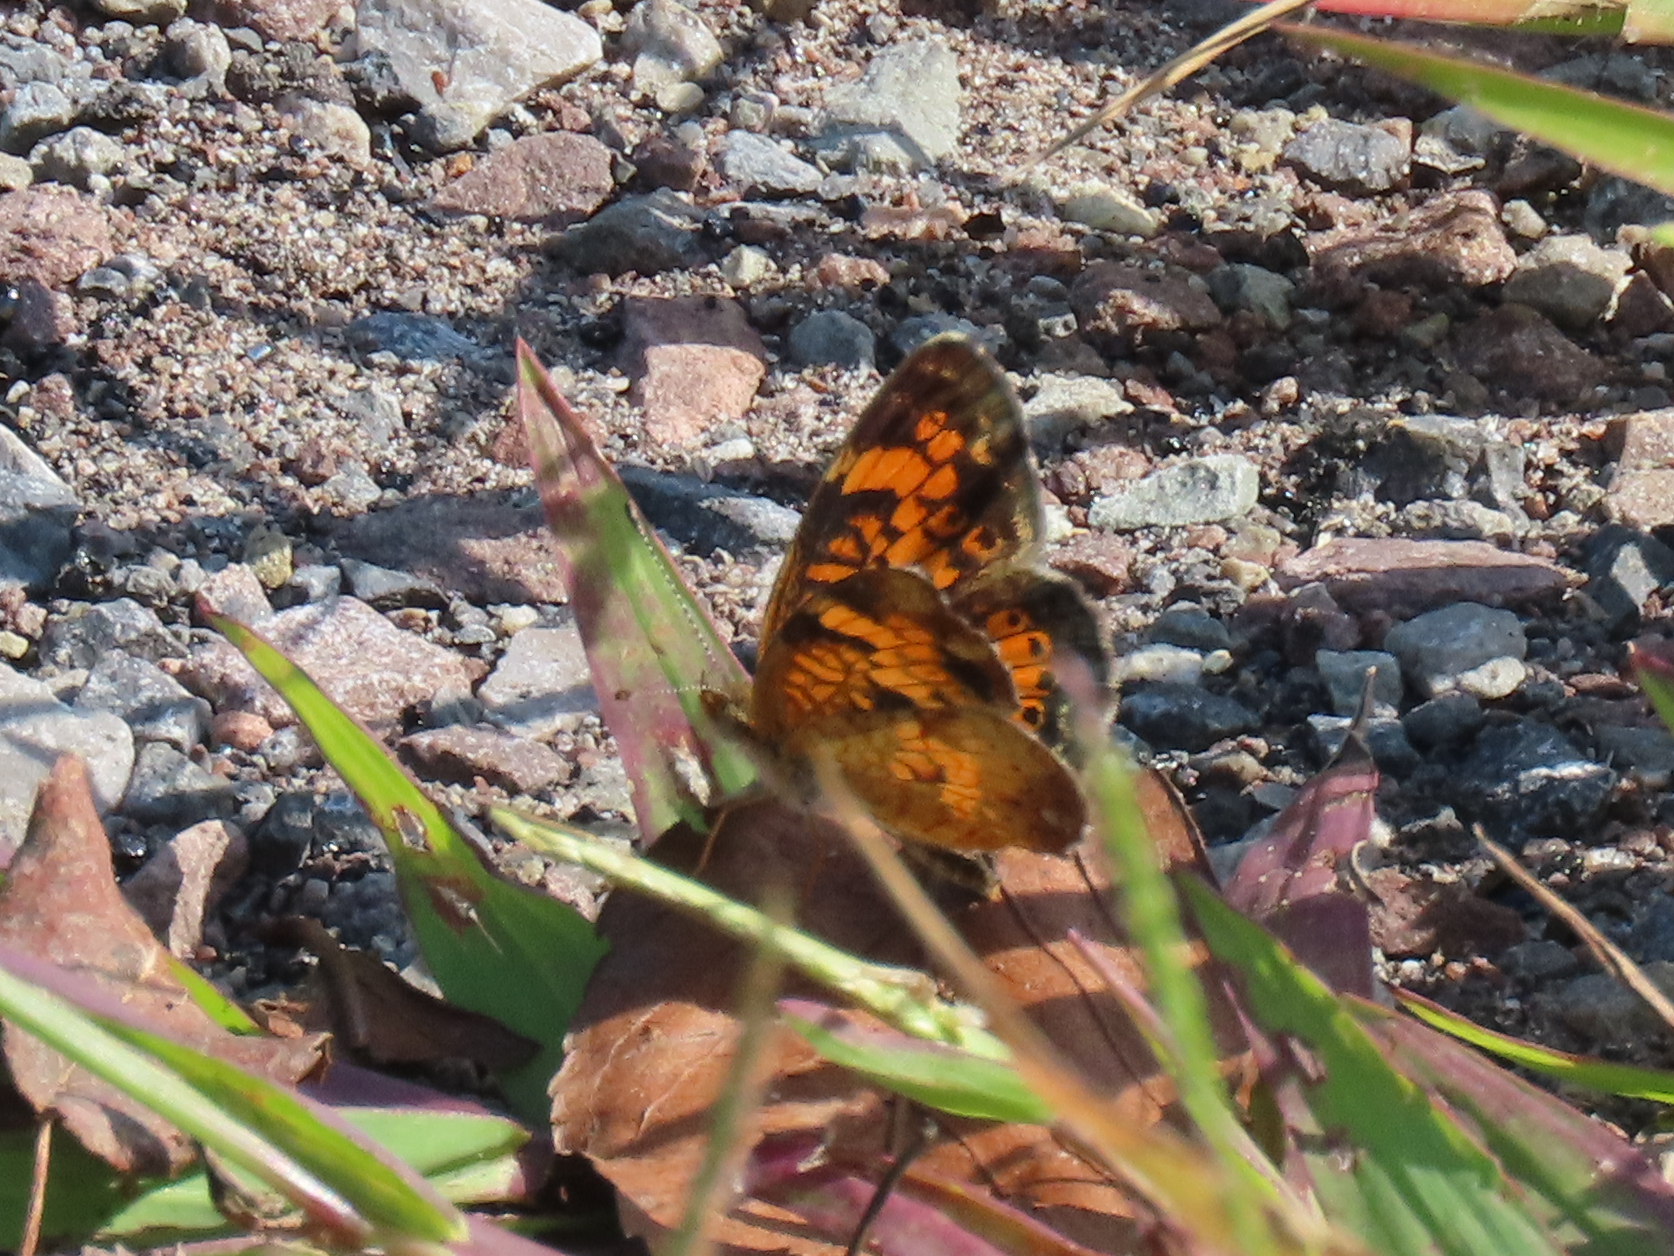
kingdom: Animalia
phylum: Arthropoda
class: Insecta
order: Lepidoptera
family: Nymphalidae
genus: Phyciodes
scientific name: Phyciodes tharos
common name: Pearl crescent
